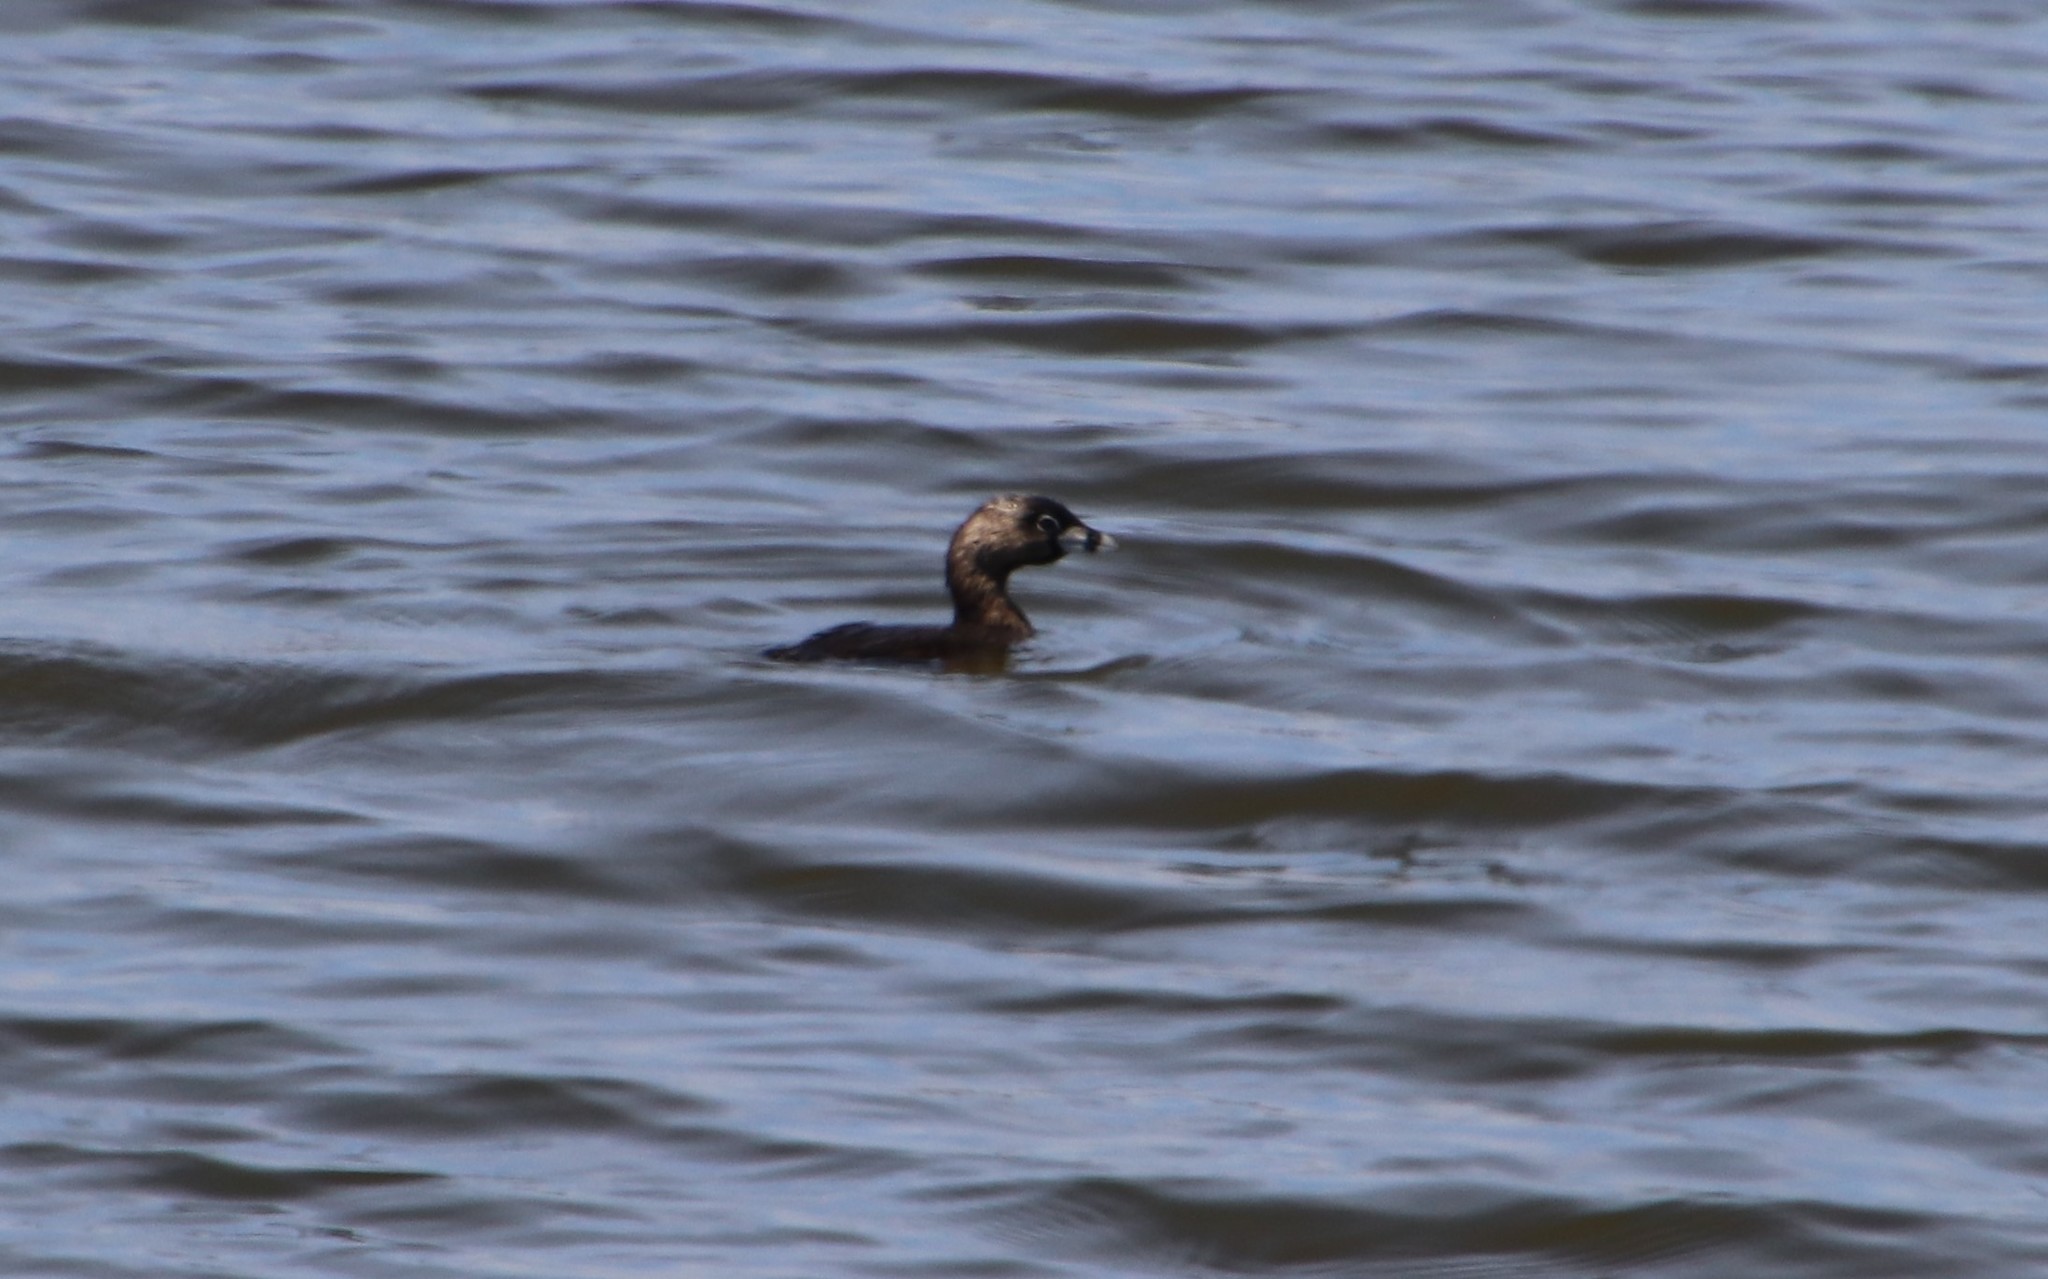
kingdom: Animalia
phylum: Chordata
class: Aves
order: Podicipediformes
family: Podicipedidae
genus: Podilymbus
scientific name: Podilymbus podiceps
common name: Pied-billed grebe
